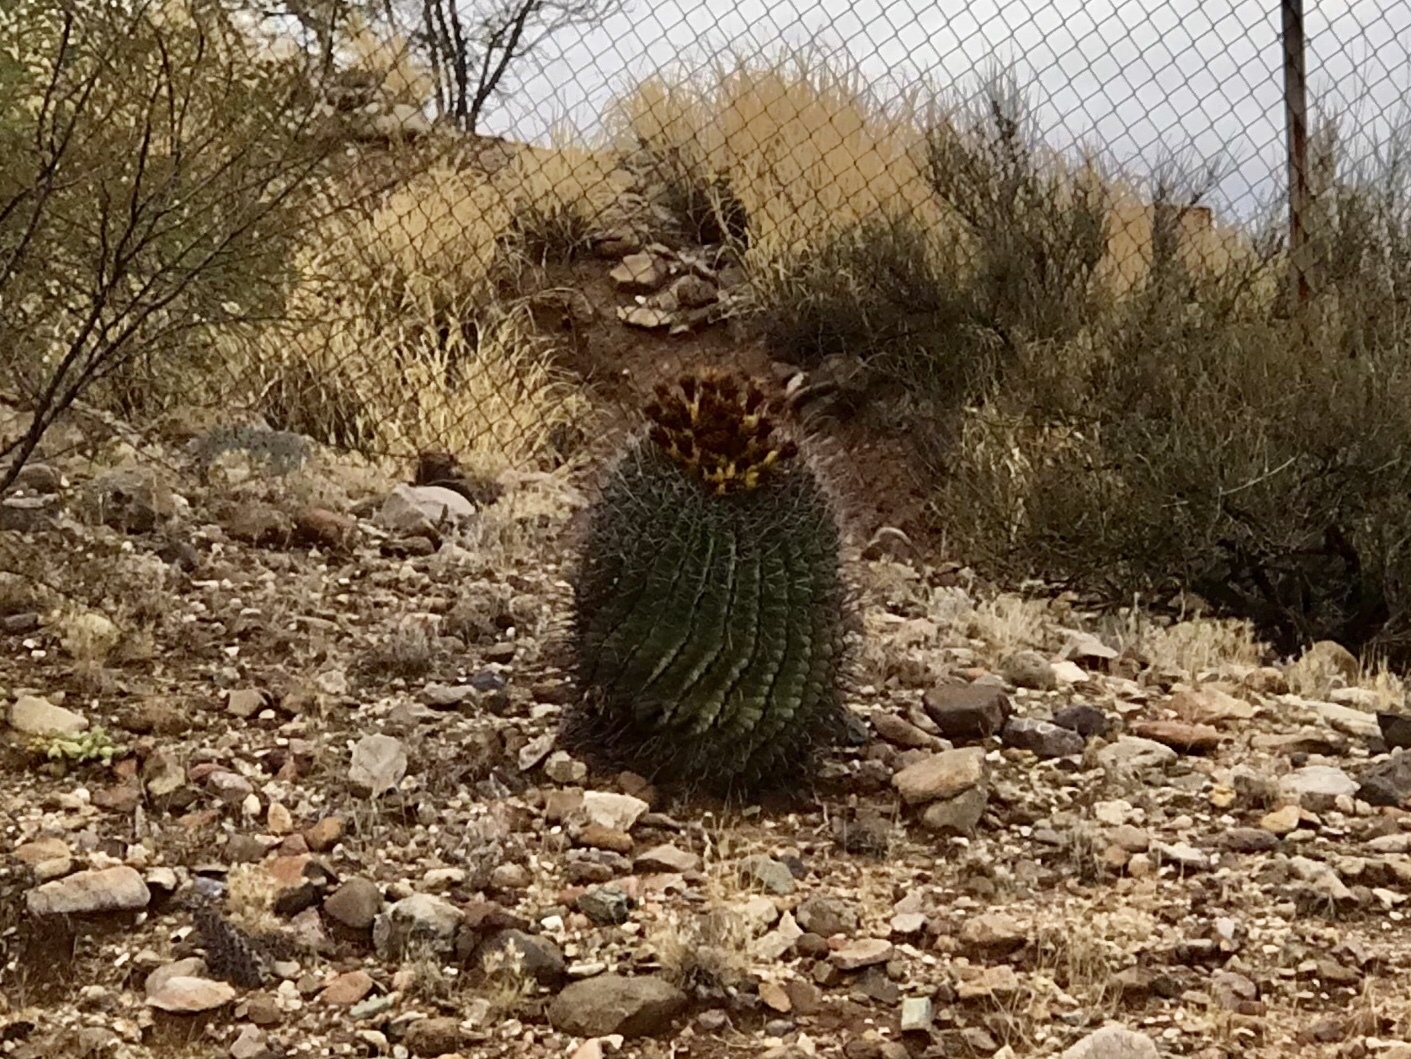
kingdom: Plantae
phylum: Tracheophyta
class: Magnoliopsida
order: Caryophyllales
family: Cactaceae
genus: Ferocactus
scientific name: Ferocactus wislizeni
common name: Candy barrel cactus
